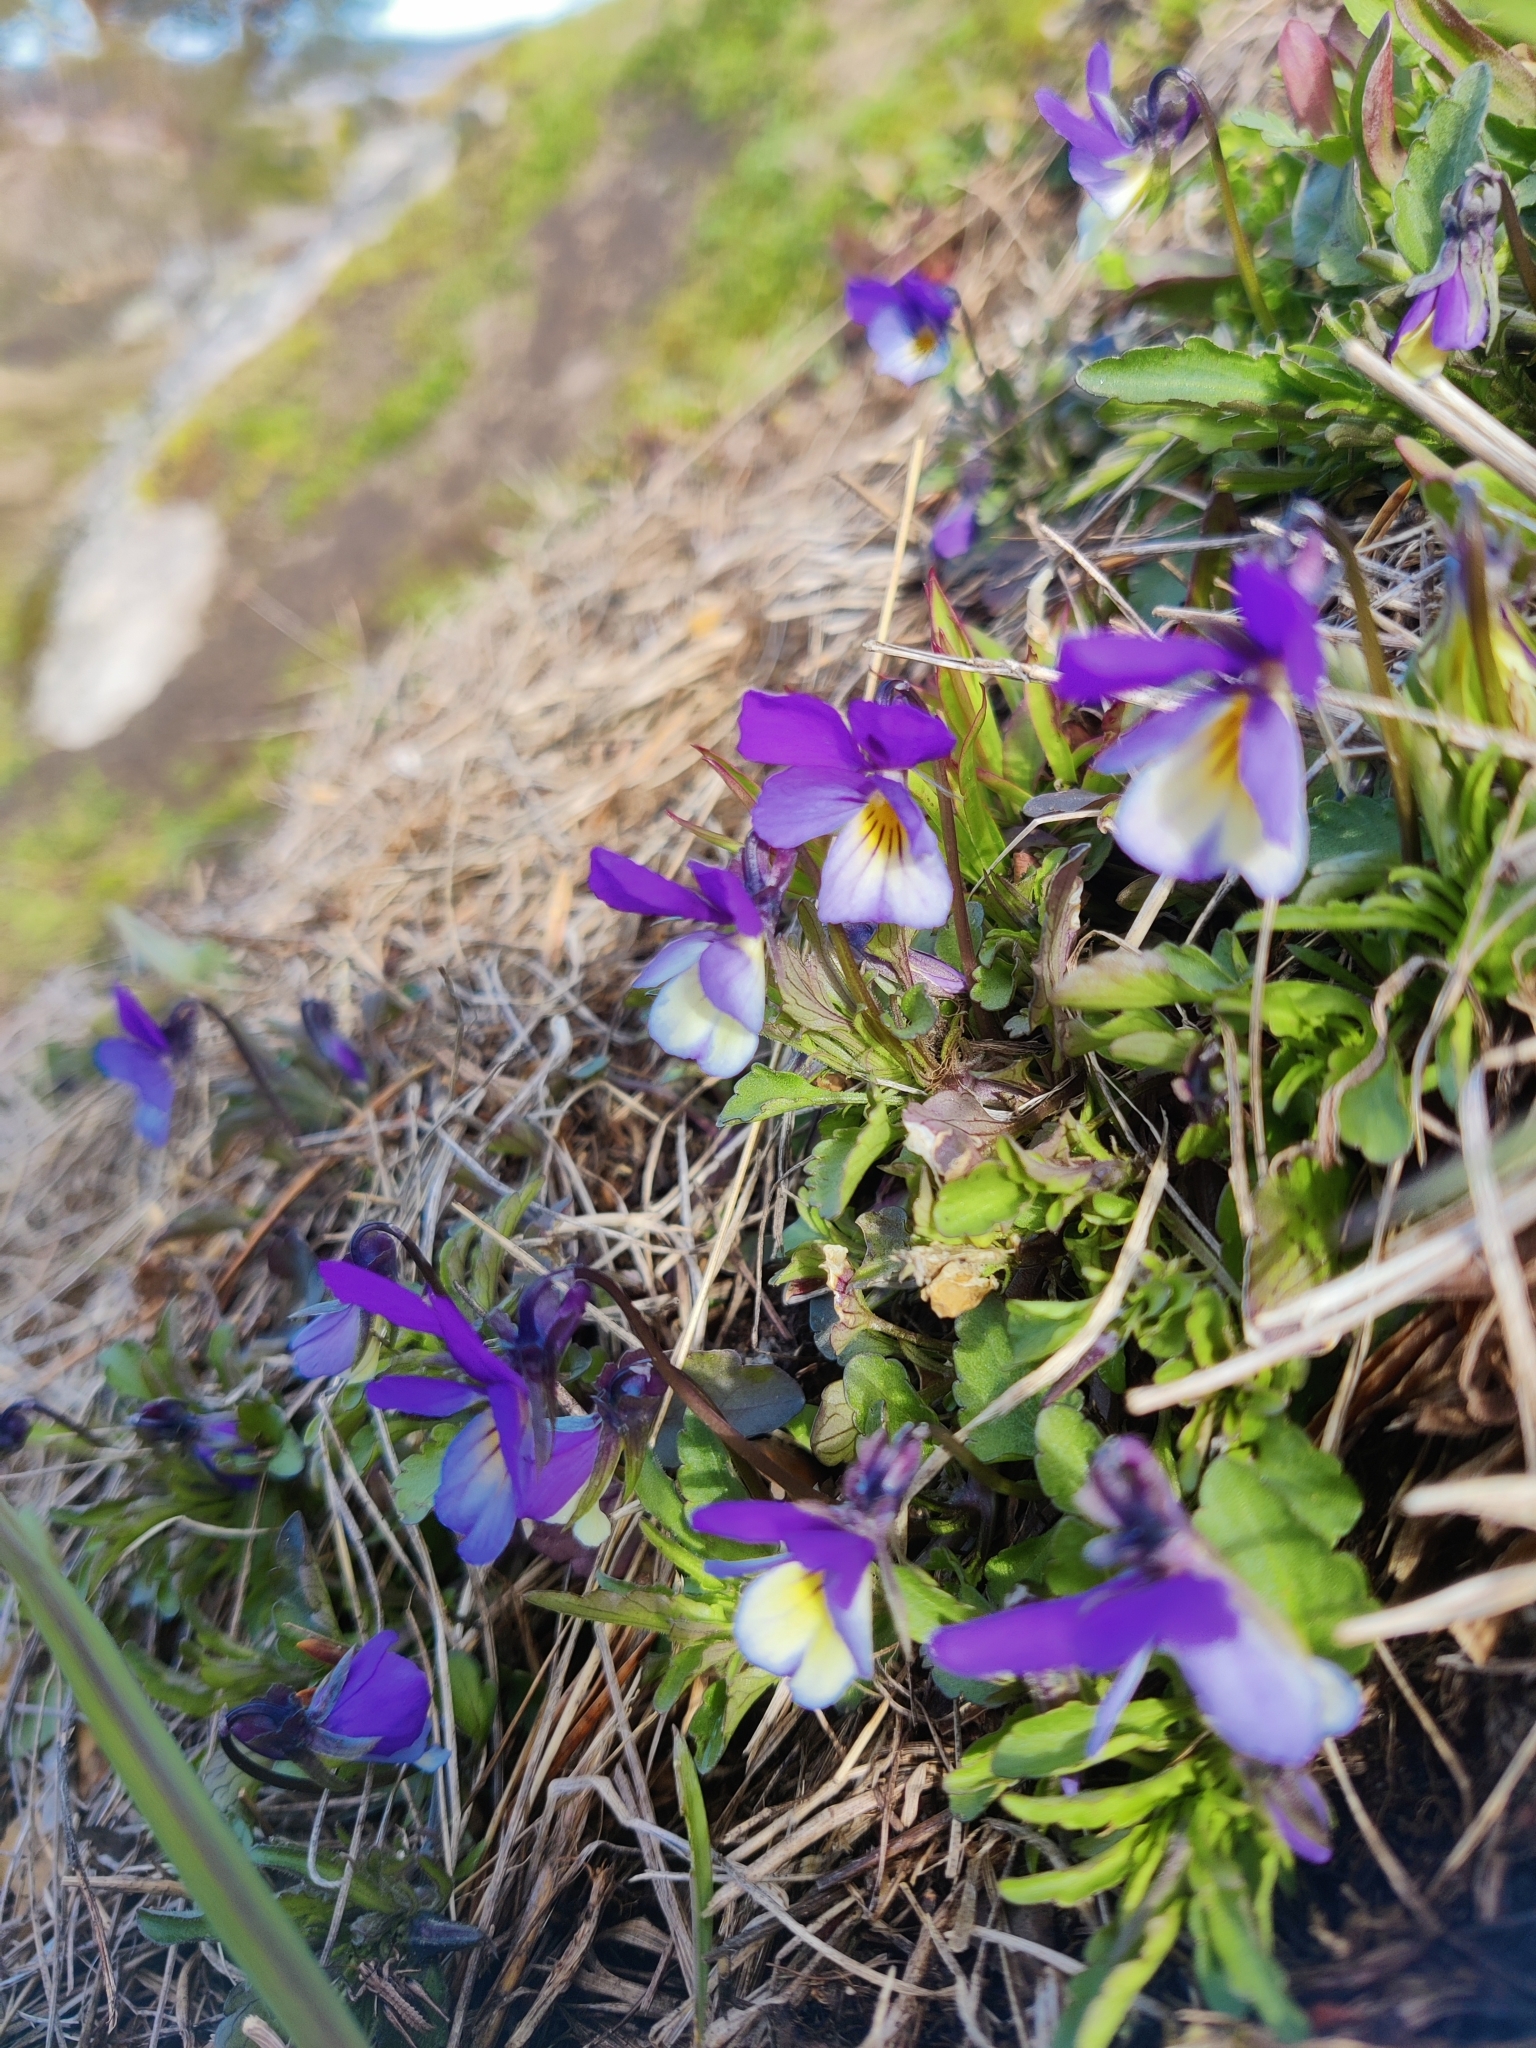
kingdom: Plantae
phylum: Tracheophyta
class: Magnoliopsida
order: Malpighiales
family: Violaceae
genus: Viola
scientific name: Viola tricolor
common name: Pansy
